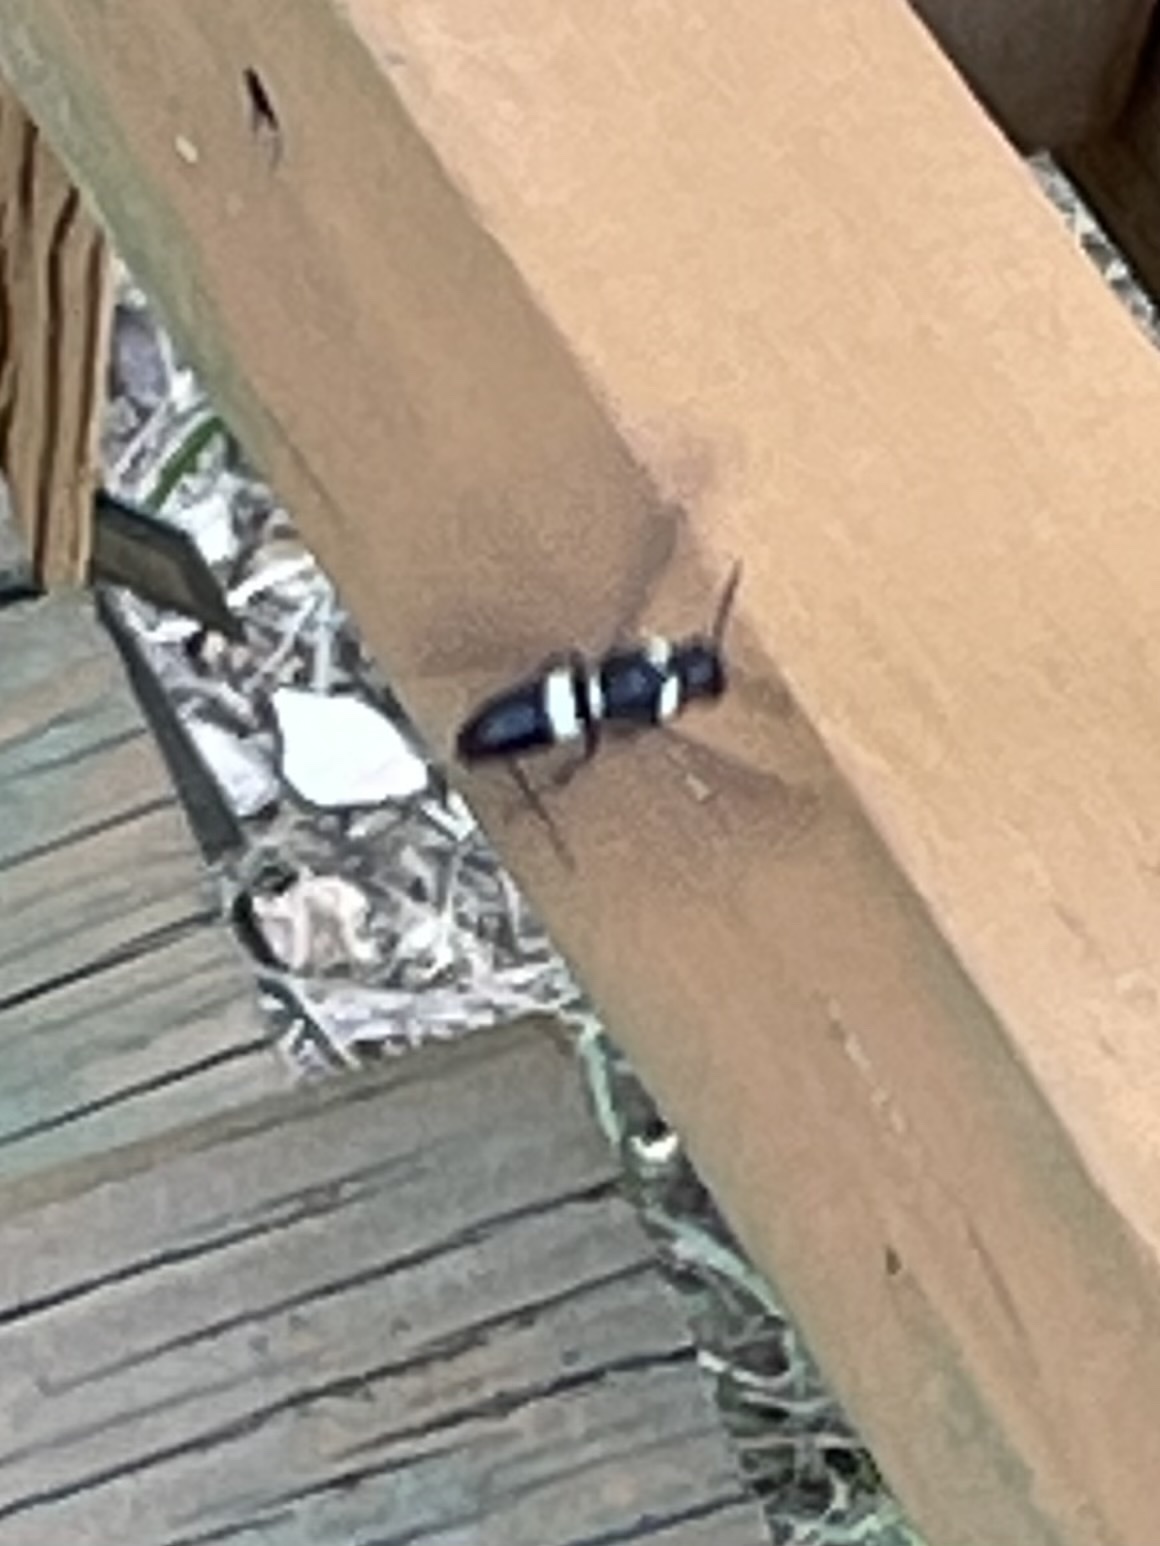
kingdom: Animalia
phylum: Arthropoda
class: Insecta
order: Hymenoptera
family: Eumenidae
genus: Monobia
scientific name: Monobia quadridens
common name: Four-toothed mason wasp
